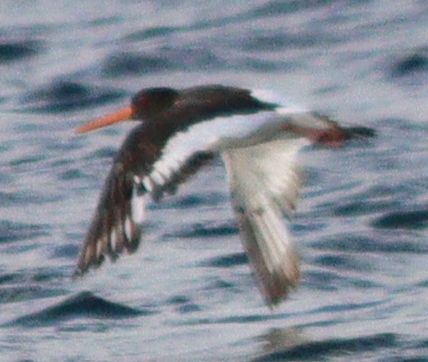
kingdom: Animalia
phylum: Chordata
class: Aves
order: Charadriiformes
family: Haematopodidae
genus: Haematopus
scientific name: Haematopus ostralegus
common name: Eurasian oystercatcher
